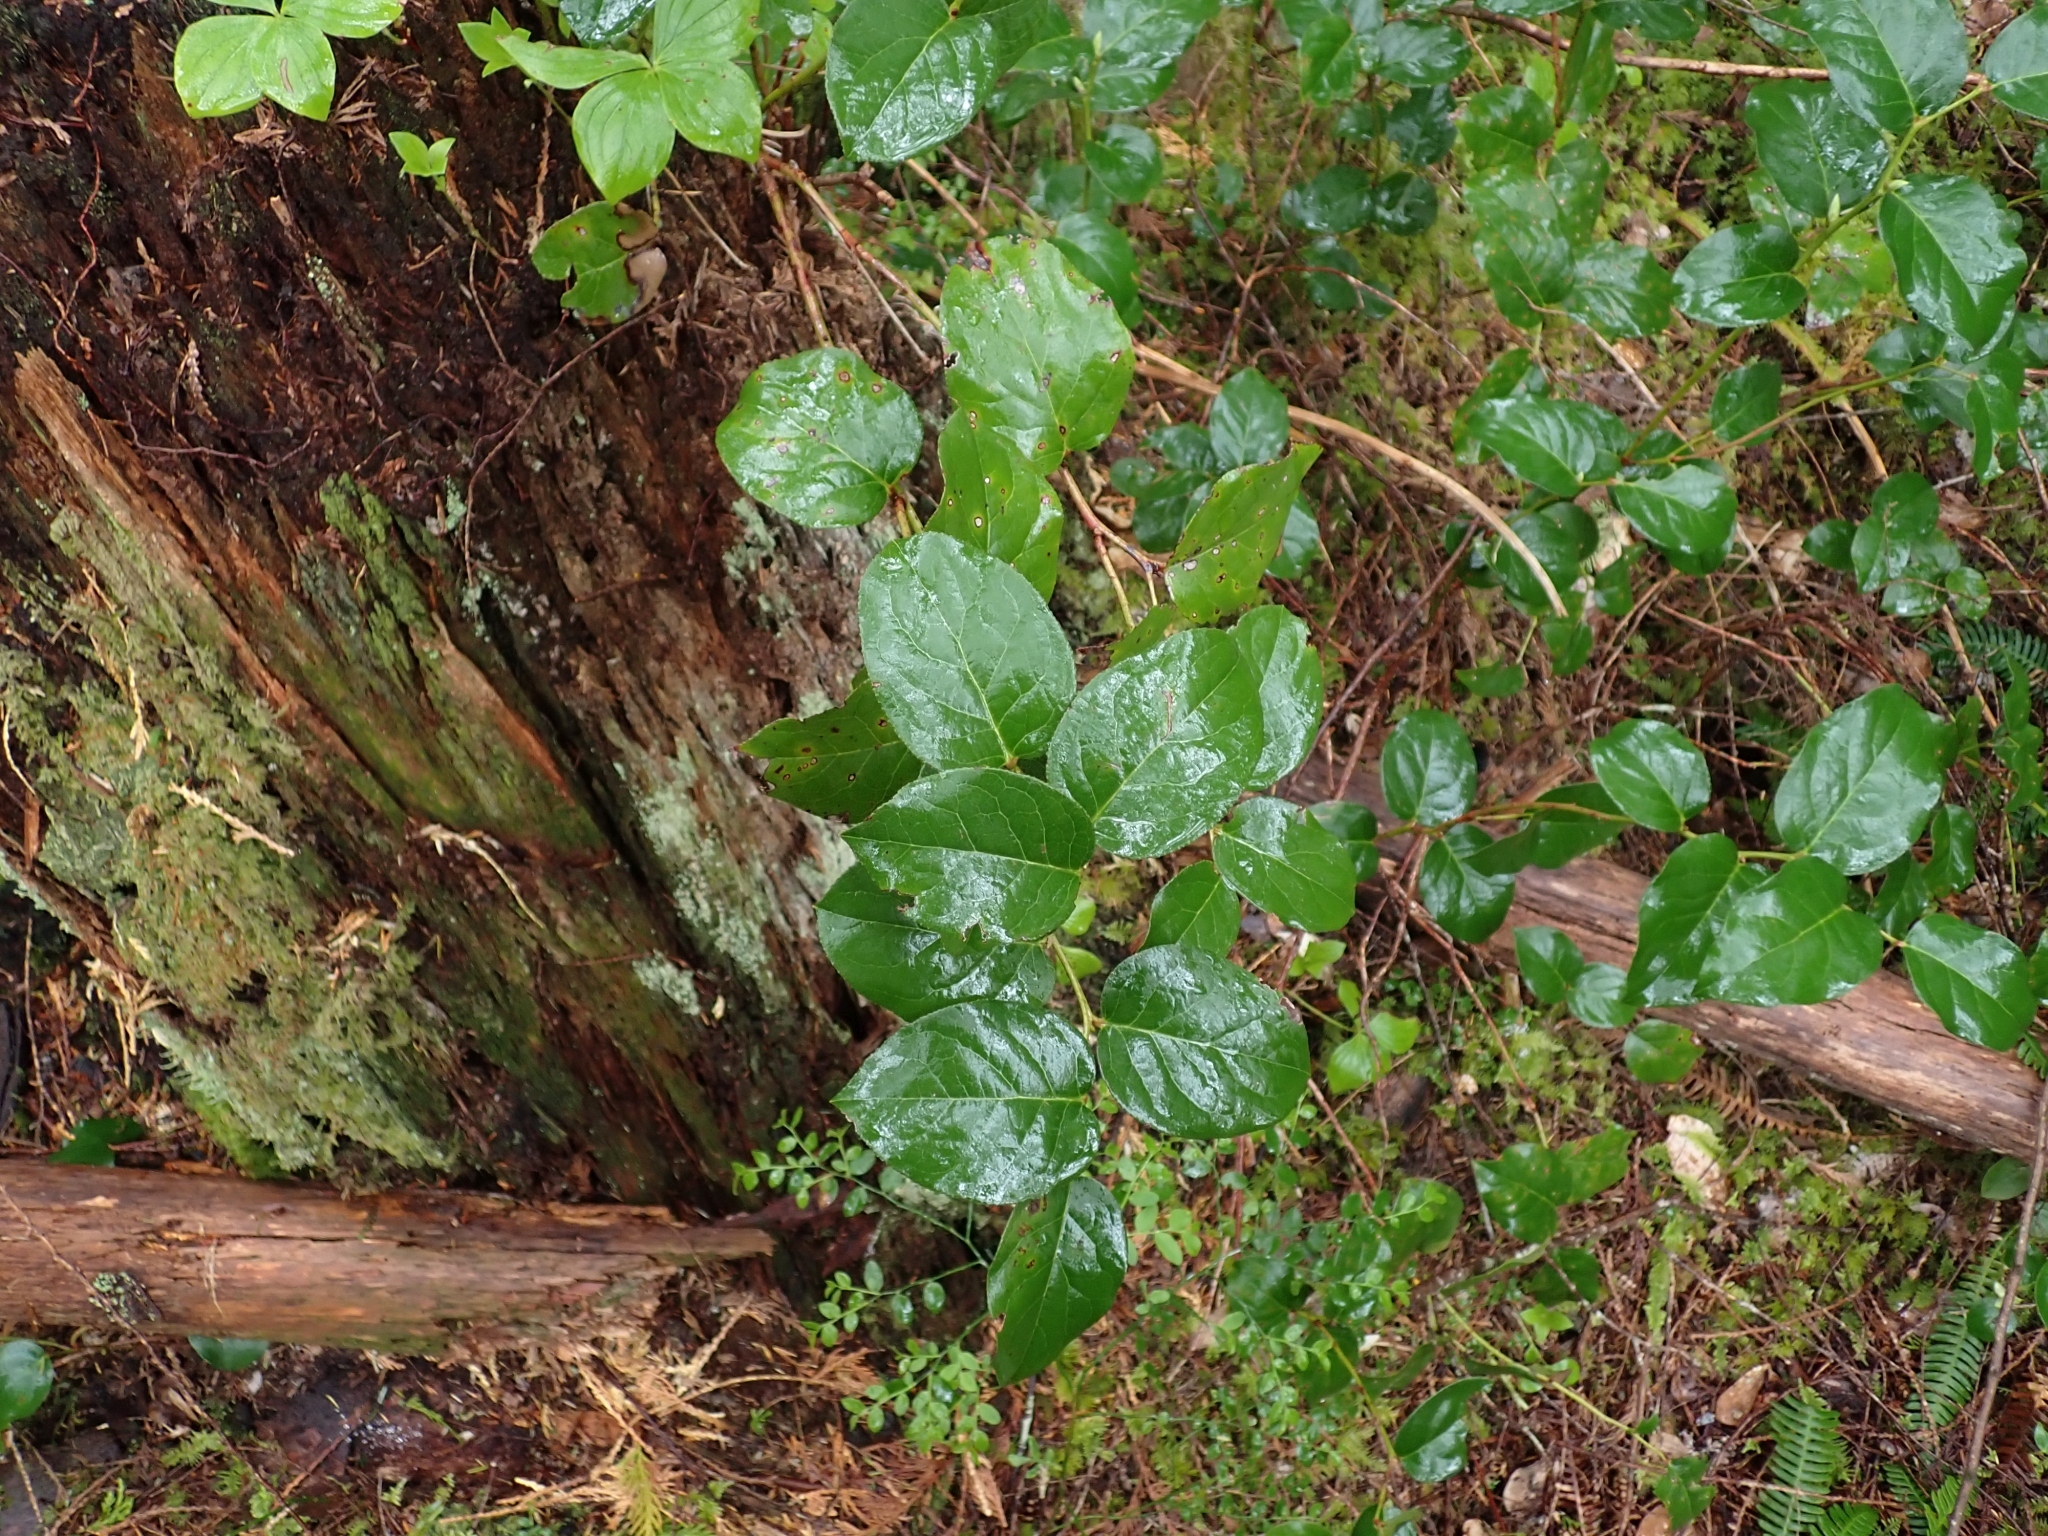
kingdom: Plantae
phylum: Tracheophyta
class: Magnoliopsida
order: Ericales
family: Ericaceae
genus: Gaultheria
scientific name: Gaultheria shallon
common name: Shallon
